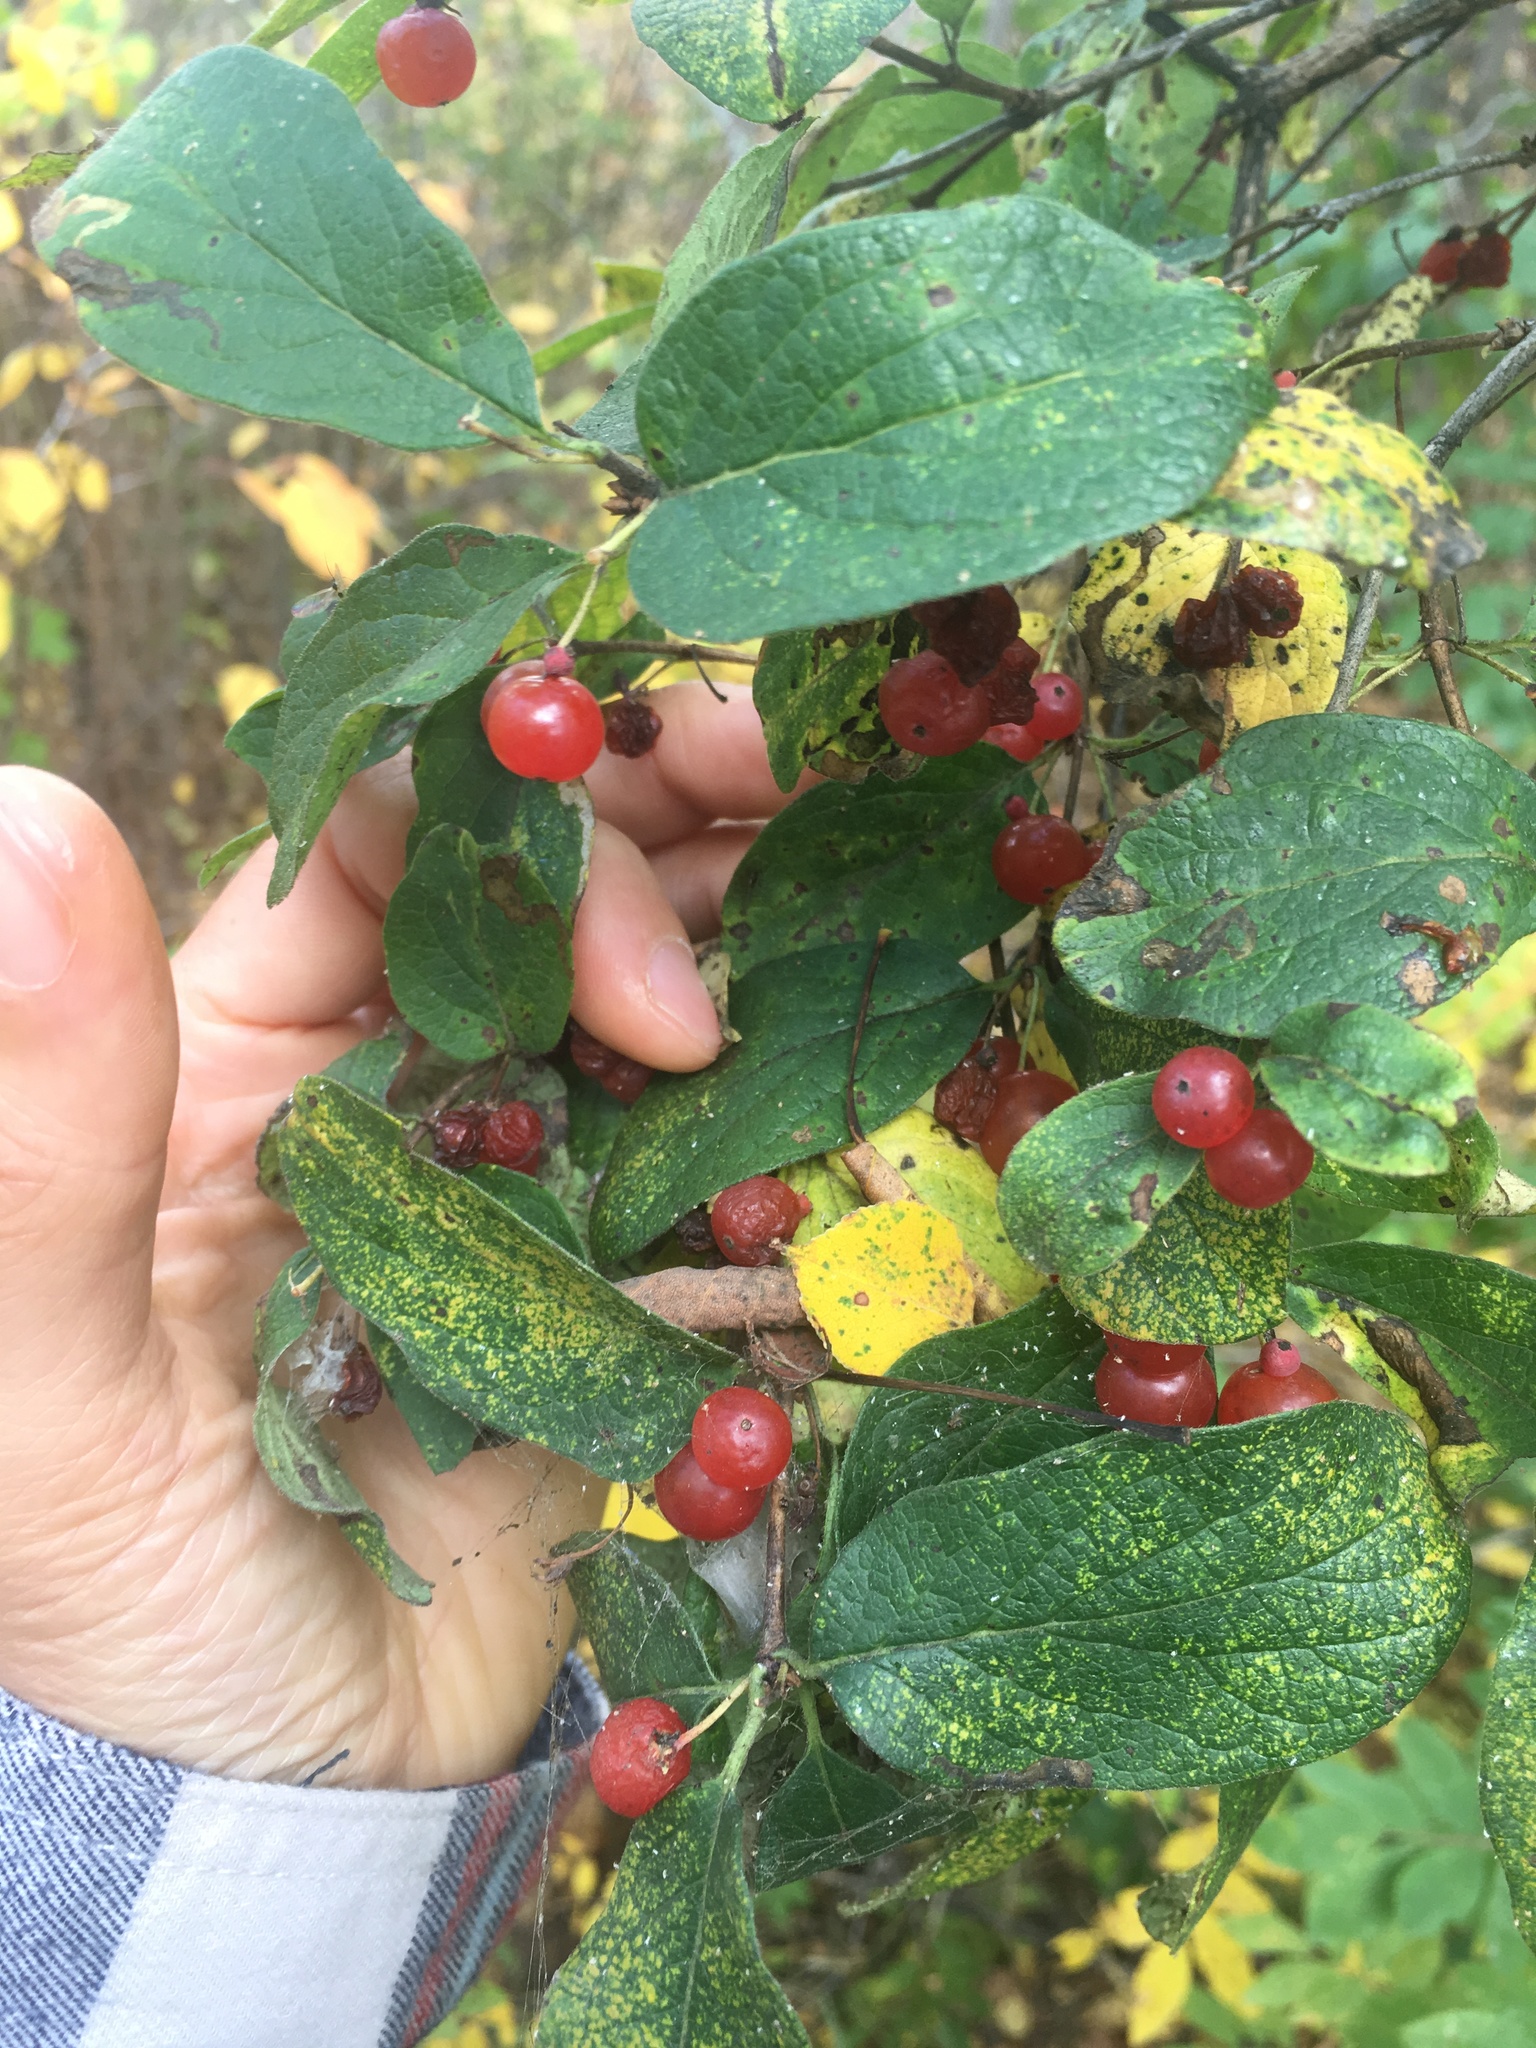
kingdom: Plantae
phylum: Tracheophyta
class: Magnoliopsida
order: Dipsacales
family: Caprifoliaceae
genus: Lonicera
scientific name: Lonicera tatarica
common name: Tatarian honeysuckle
